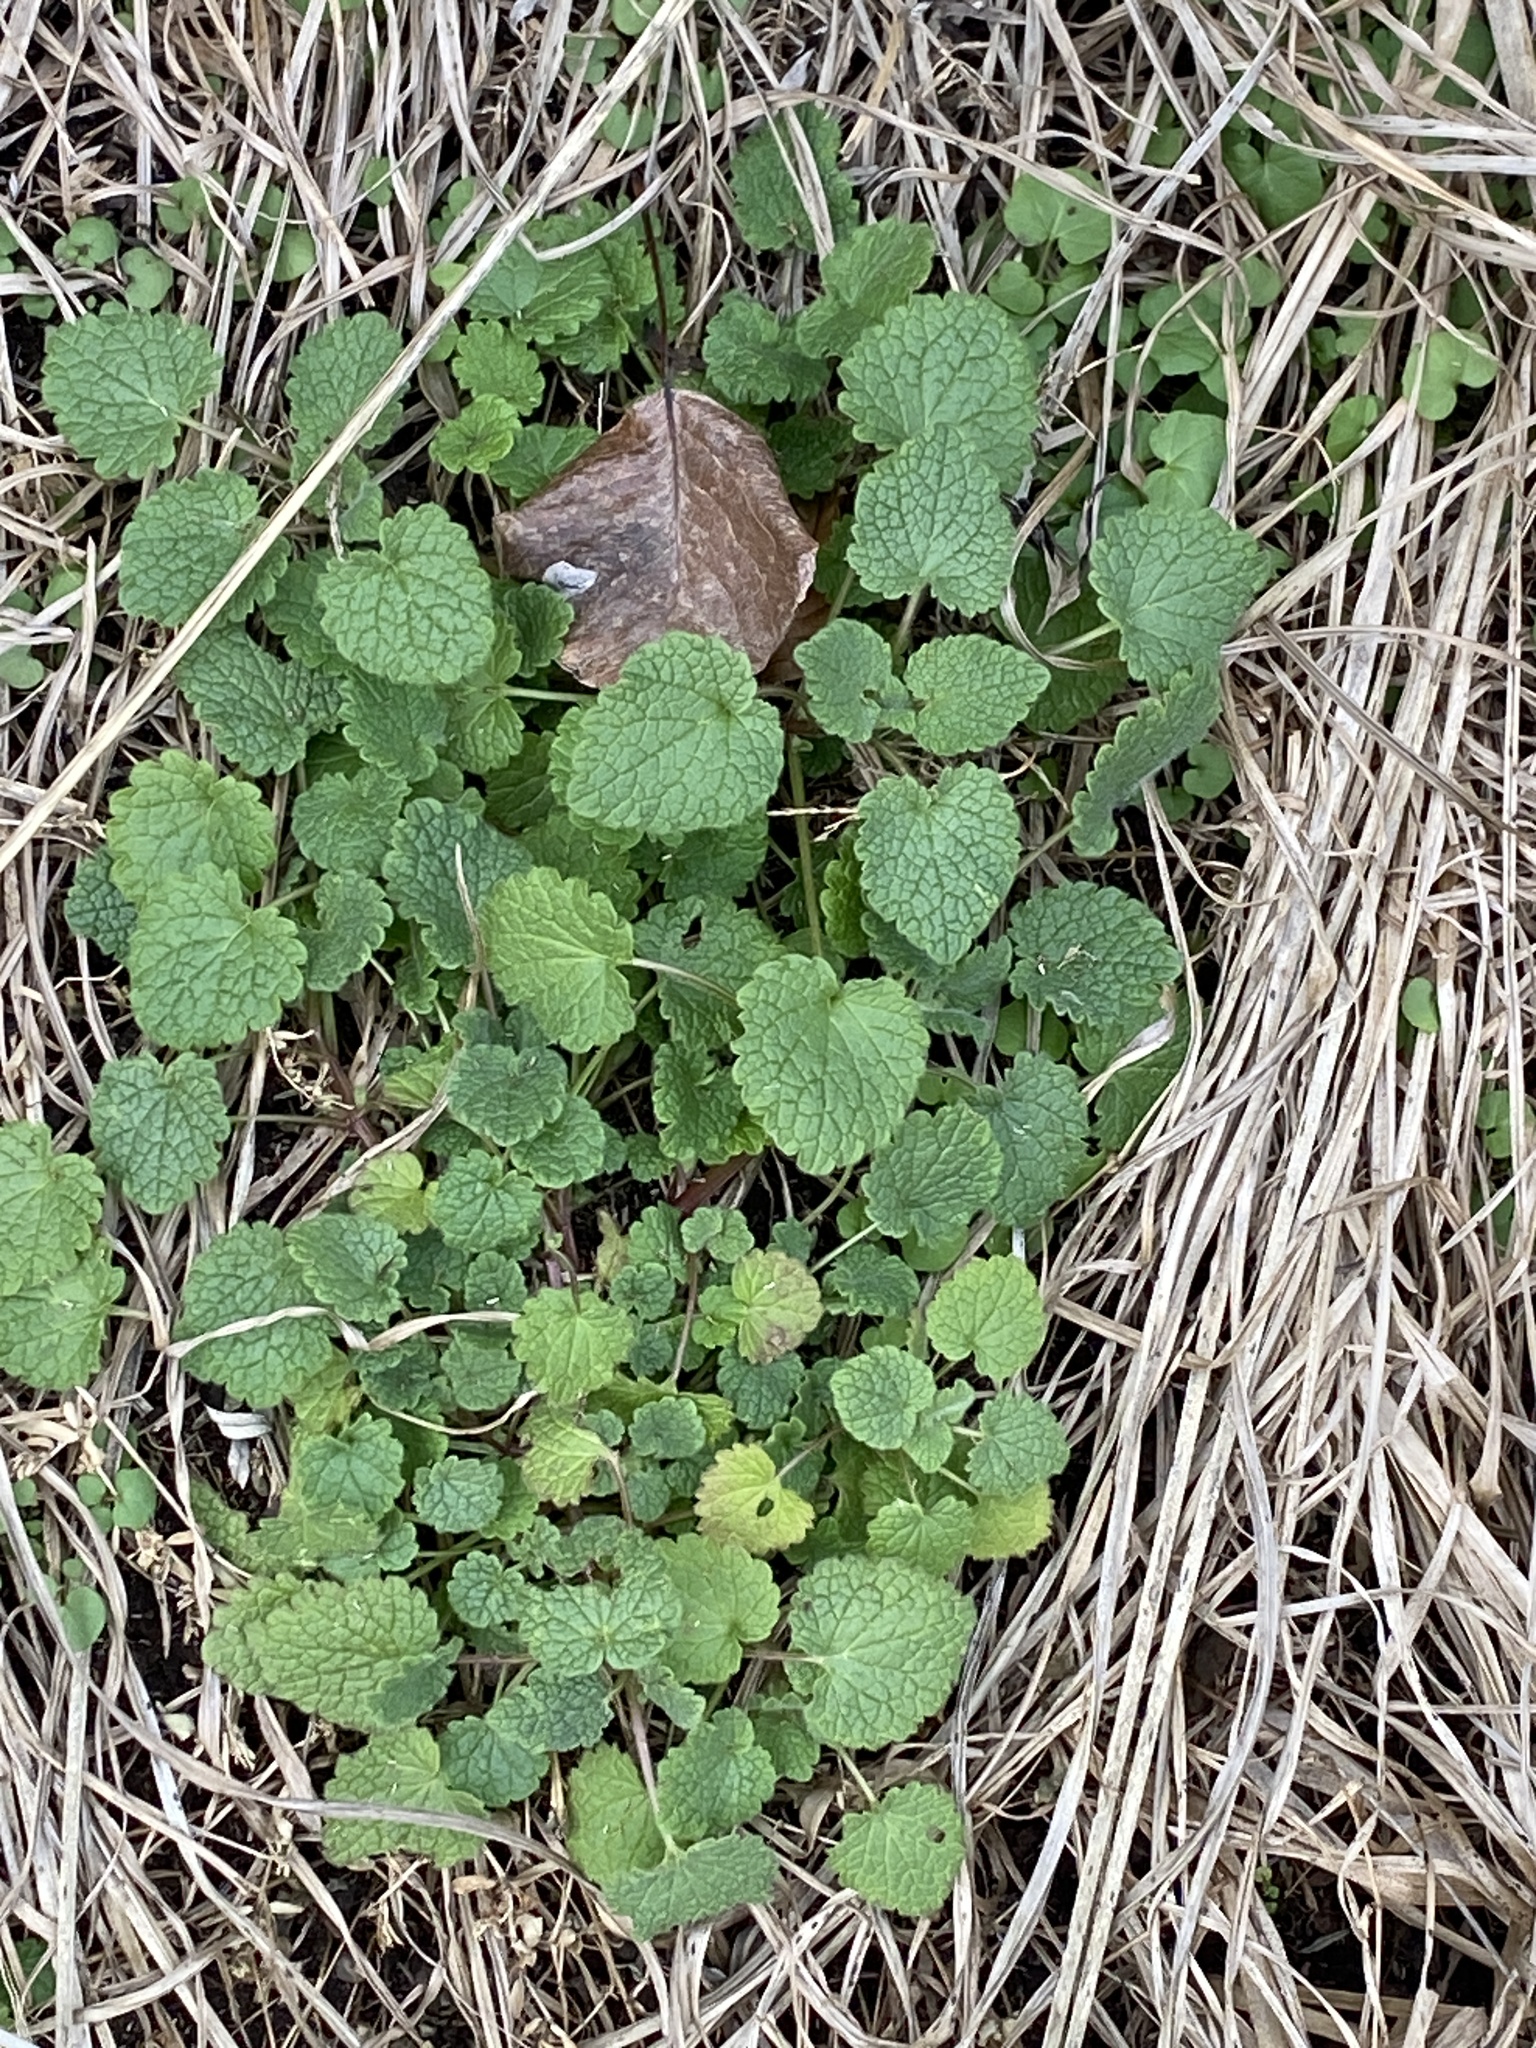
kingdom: Plantae
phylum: Tracheophyta
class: Magnoliopsida
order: Lamiales
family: Lamiaceae
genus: Lamium
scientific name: Lamium purpureum
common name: Red dead-nettle
